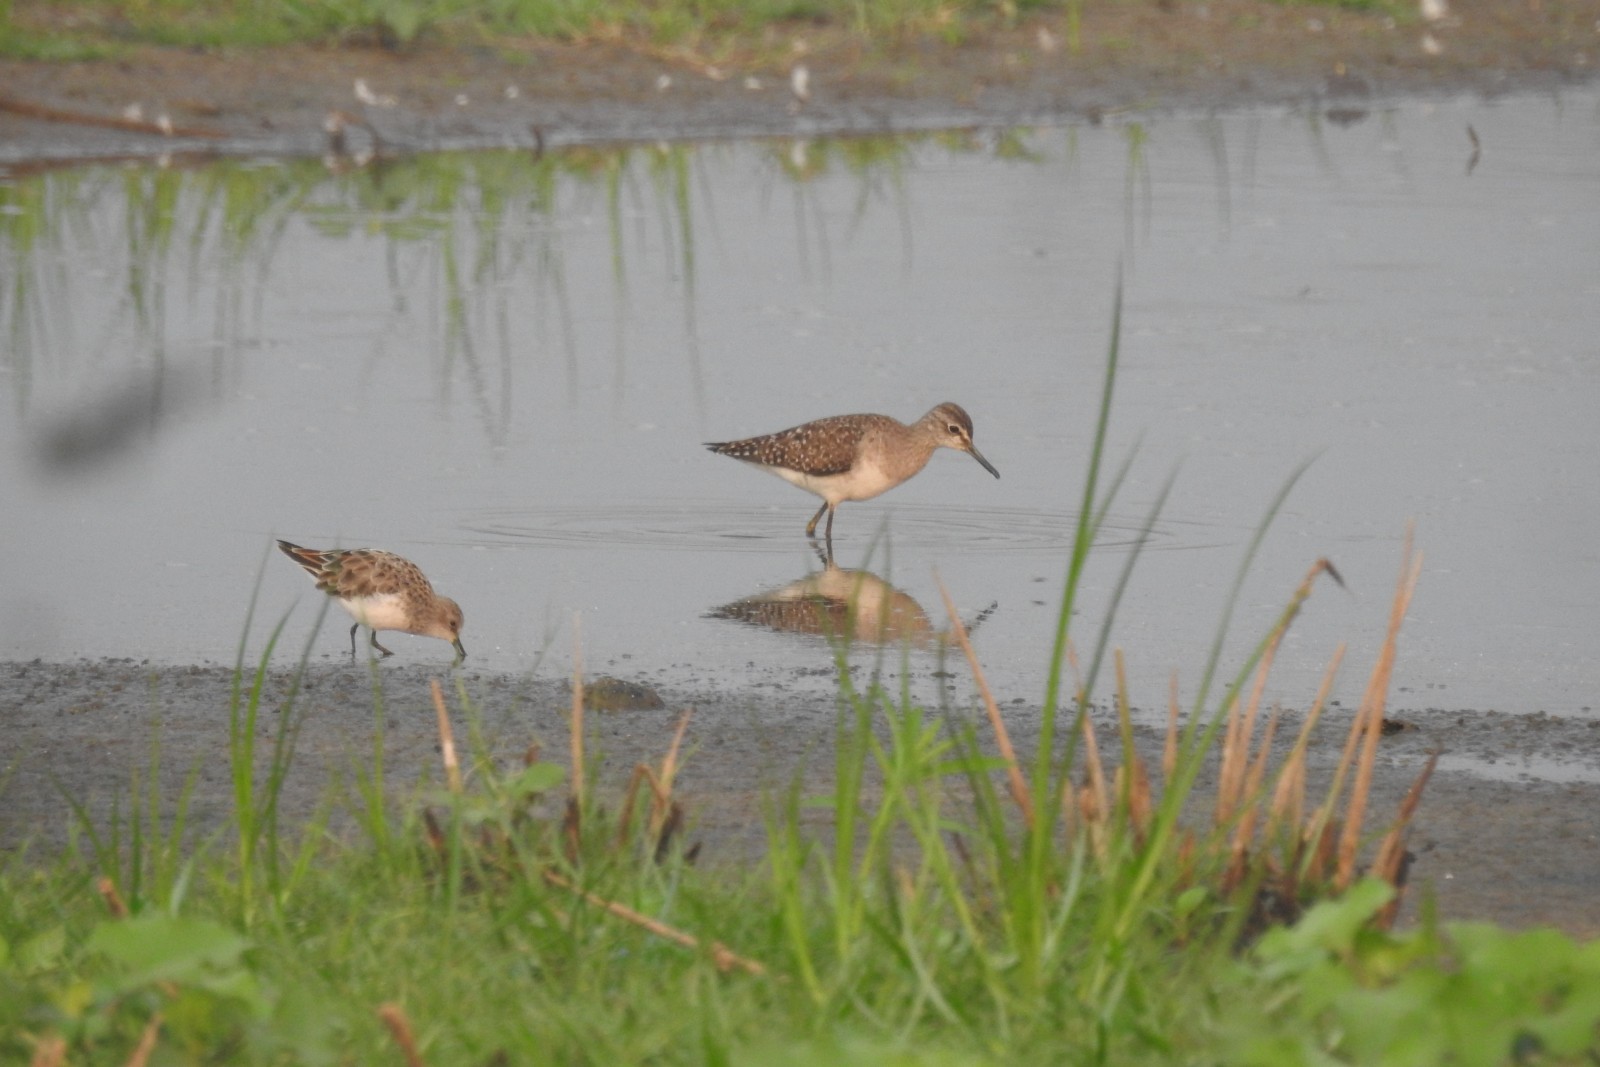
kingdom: Animalia
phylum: Chordata
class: Aves
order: Charadriiformes
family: Scolopacidae
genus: Calidris
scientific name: Calidris minuta
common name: Little stint
